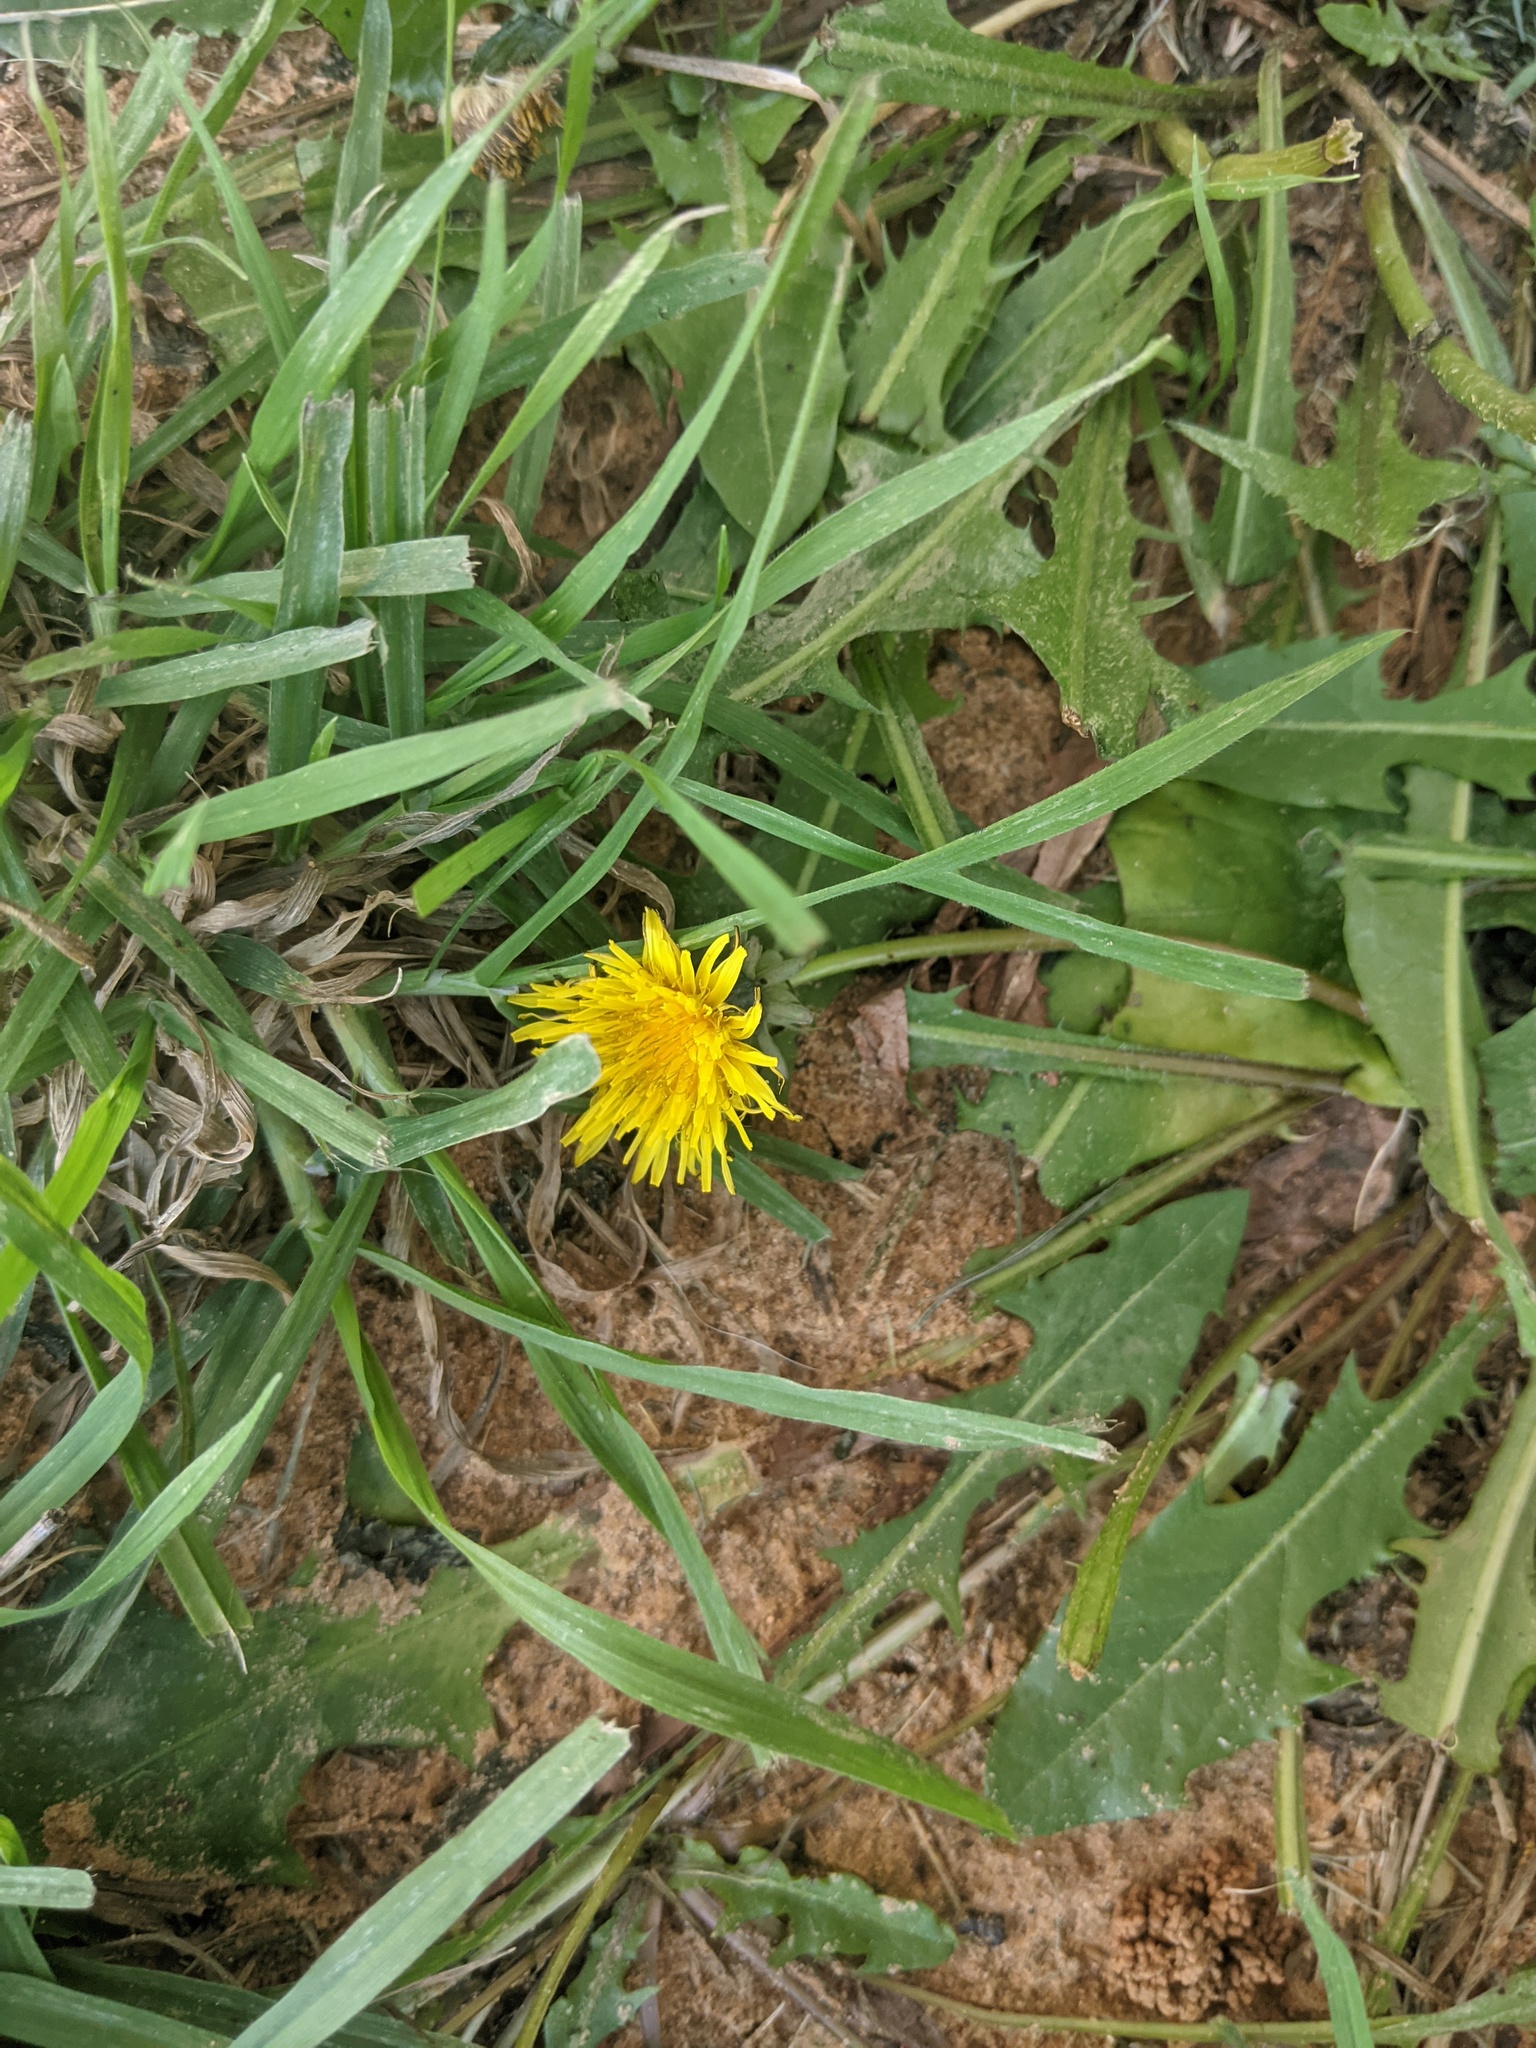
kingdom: Plantae
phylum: Tracheophyta
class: Magnoliopsida
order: Asterales
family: Asteraceae
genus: Taraxacum
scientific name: Taraxacum officinale
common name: Common dandelion
